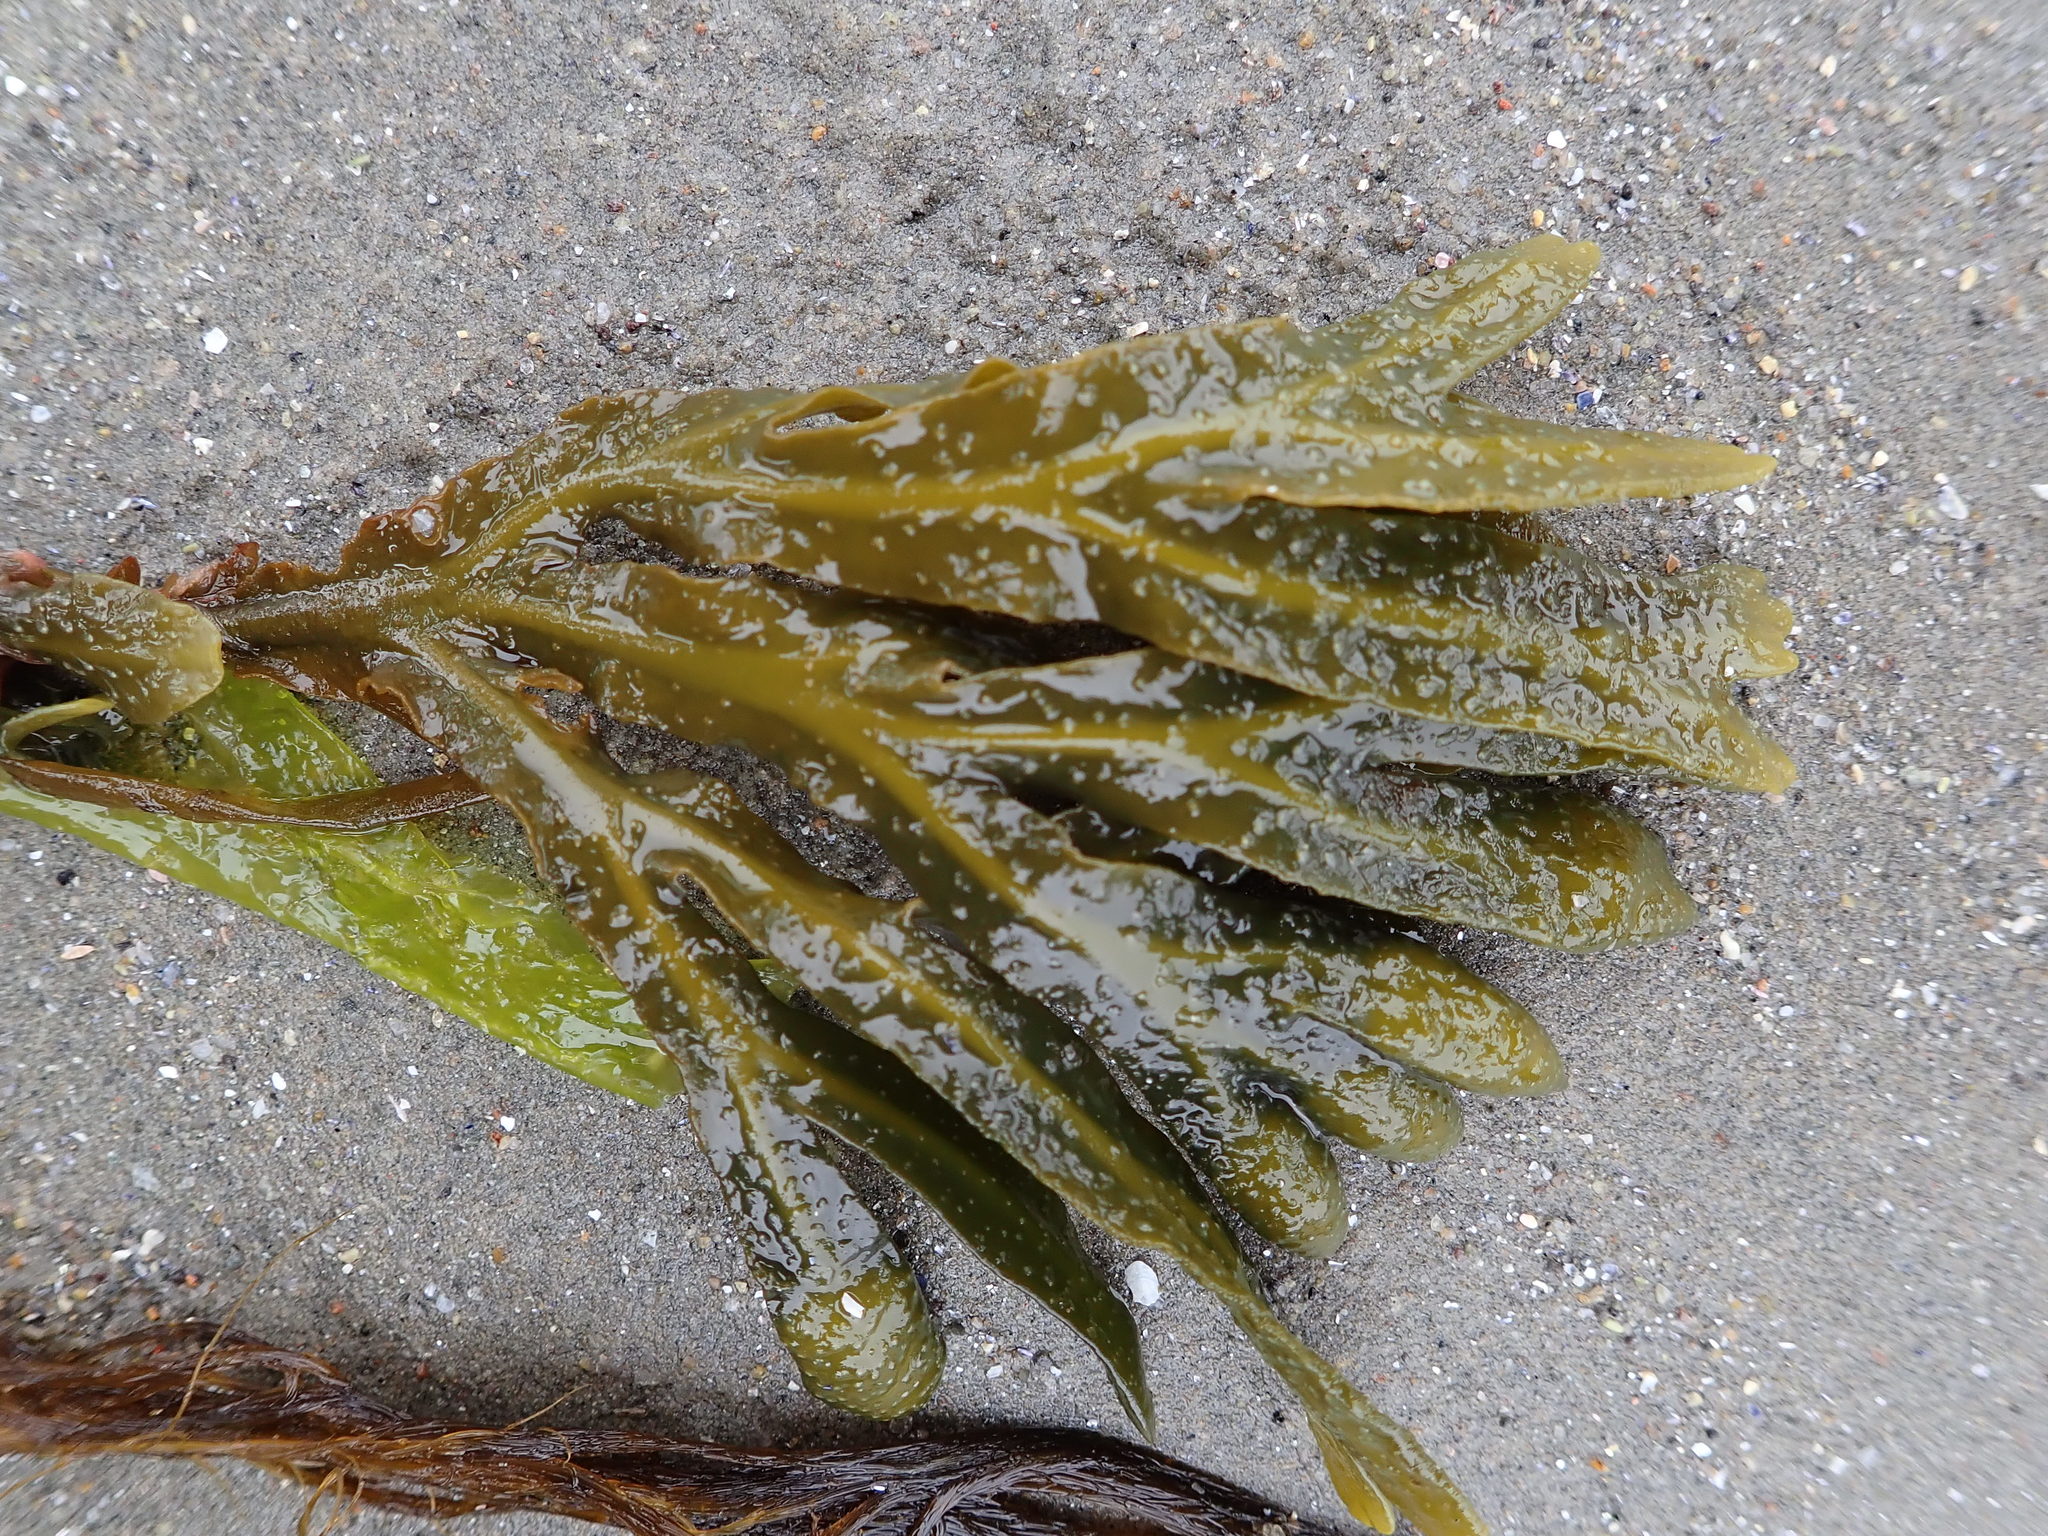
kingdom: Chromista
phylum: Ochrophyta
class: Phaeophyceae
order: Fucales
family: Fucaceae
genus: Fucus
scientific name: Fucus distichus
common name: Rockweed
